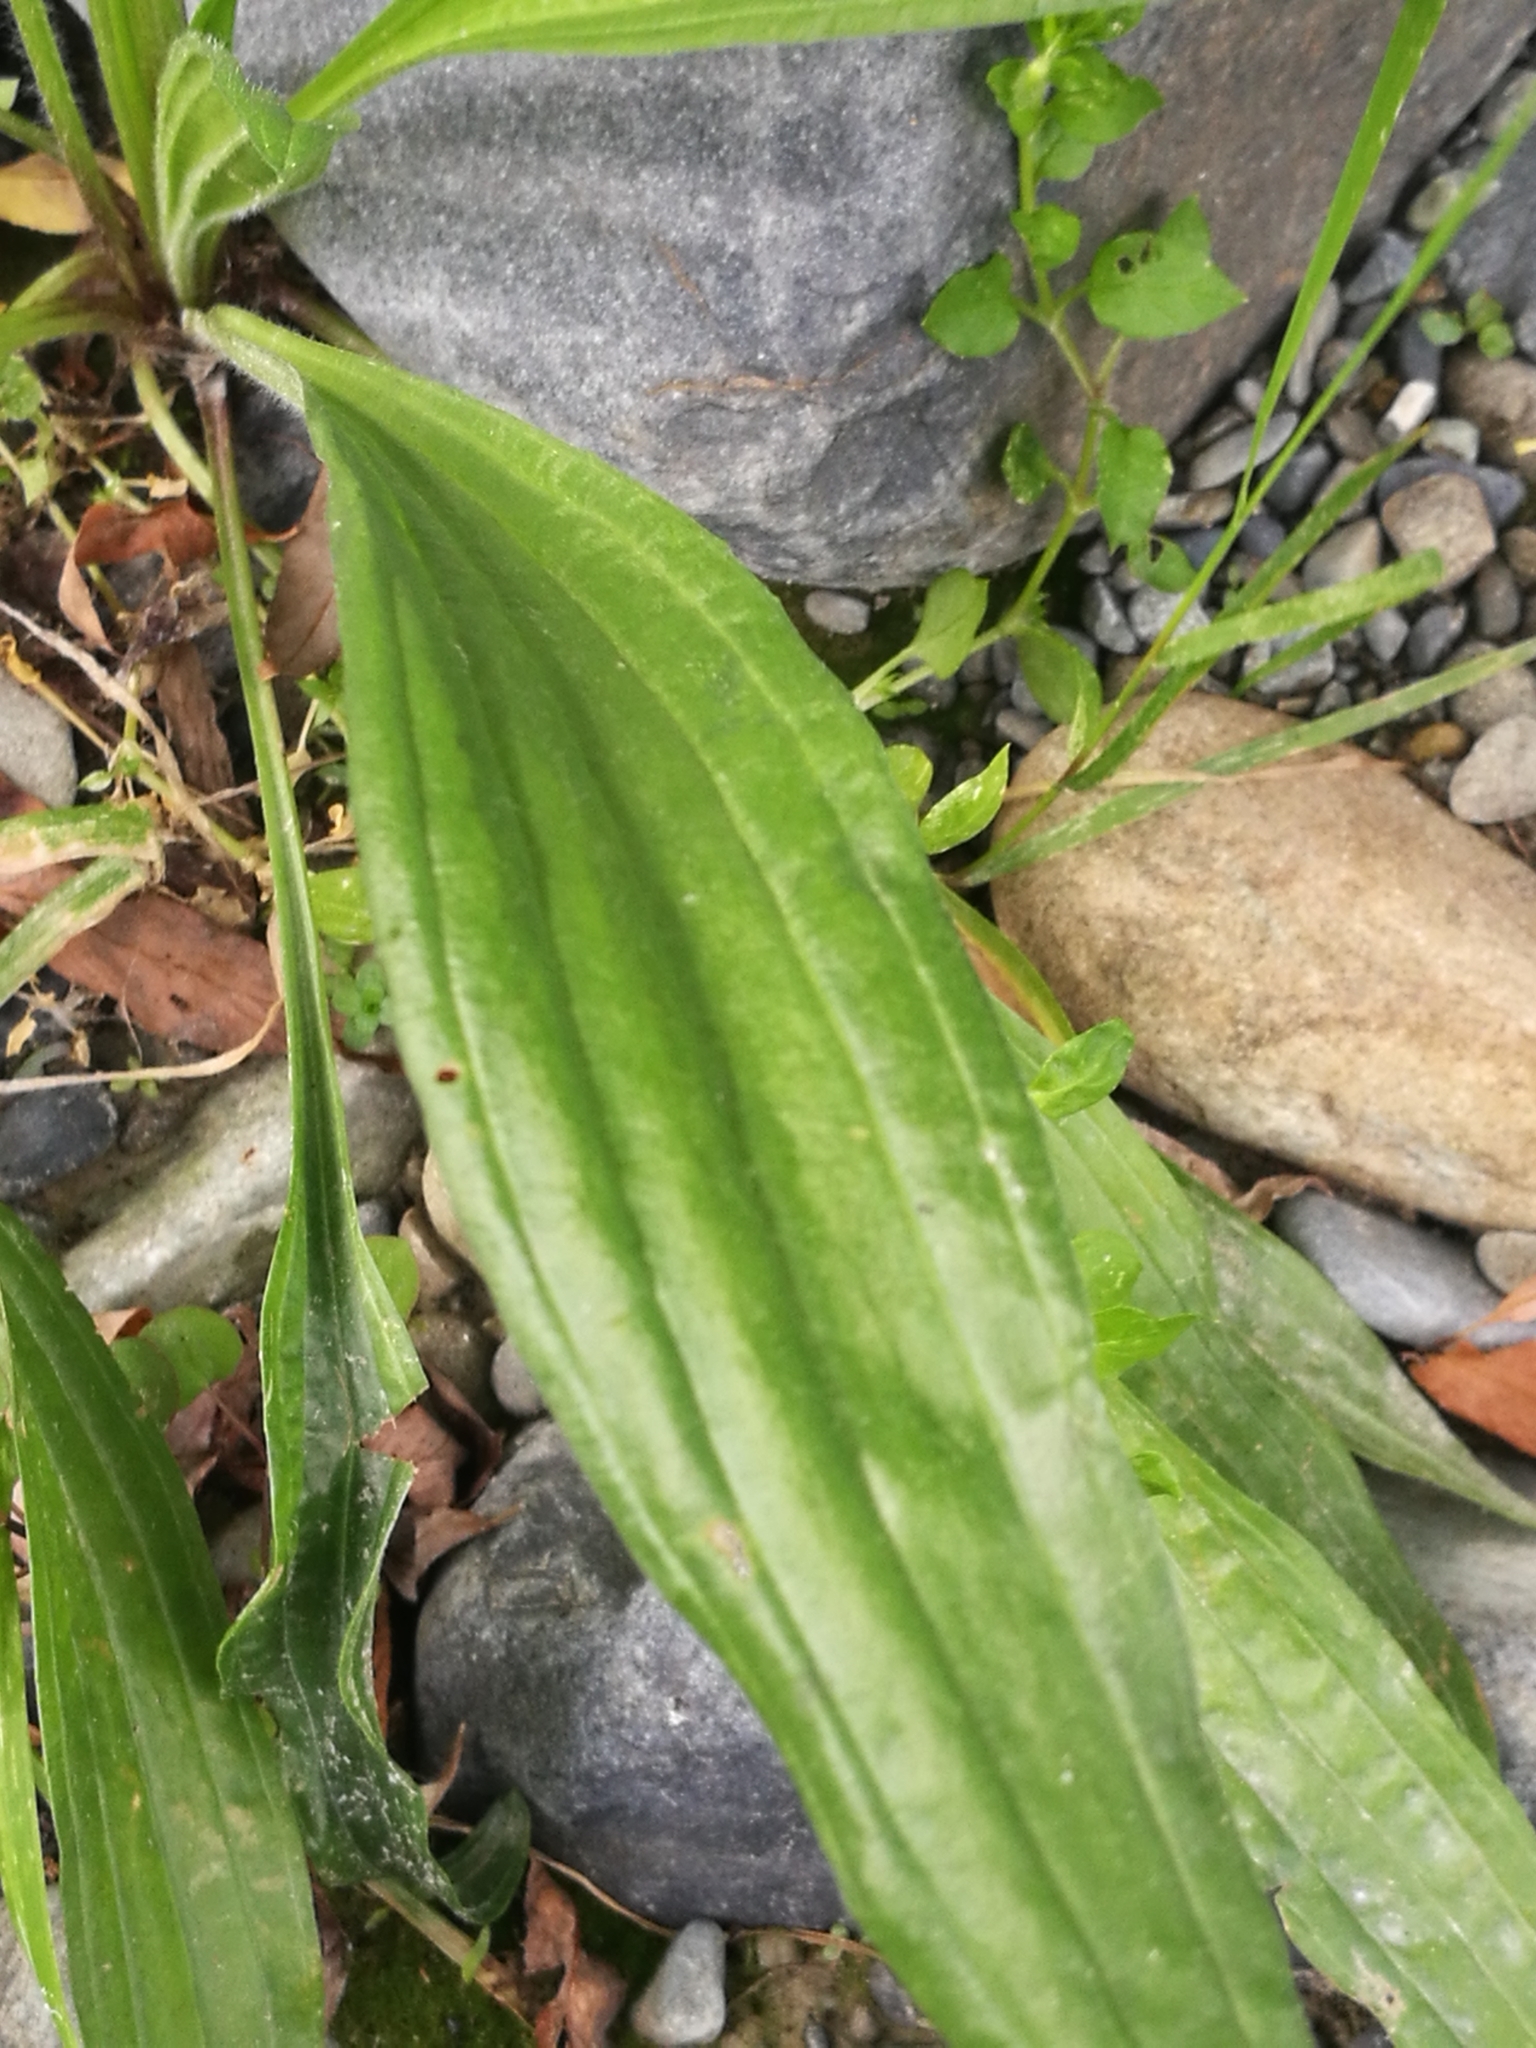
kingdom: Plantae
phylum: Tracheophyta
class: Magnoliopsida
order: Lamiales
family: Plantaginaceae
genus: Plantago
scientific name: Plantago lanceolata
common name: Ribwort plantain
